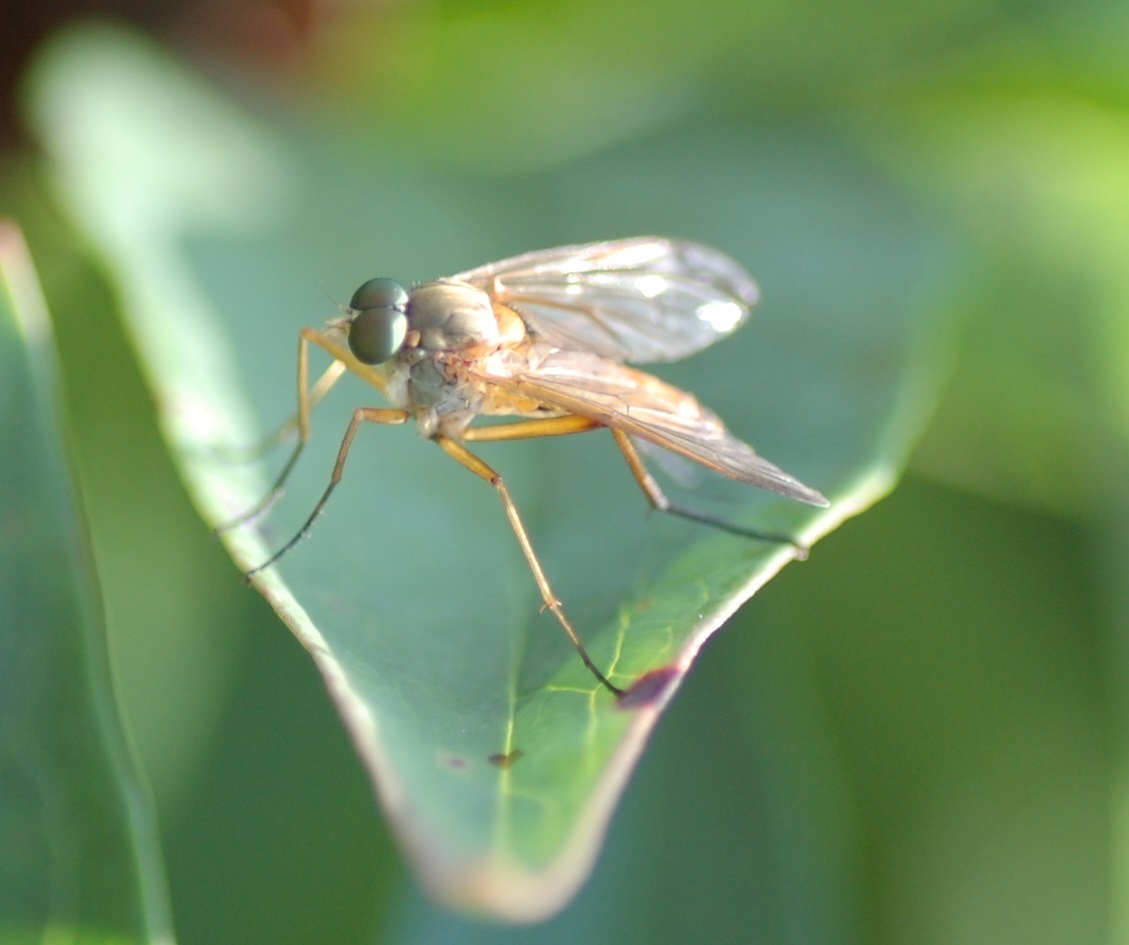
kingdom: Animalia
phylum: Arthropoda
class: Insecta
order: Diptera
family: Rhagionidae
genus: Rhagio
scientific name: Rhagio tringaria
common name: Marsh snipefly
